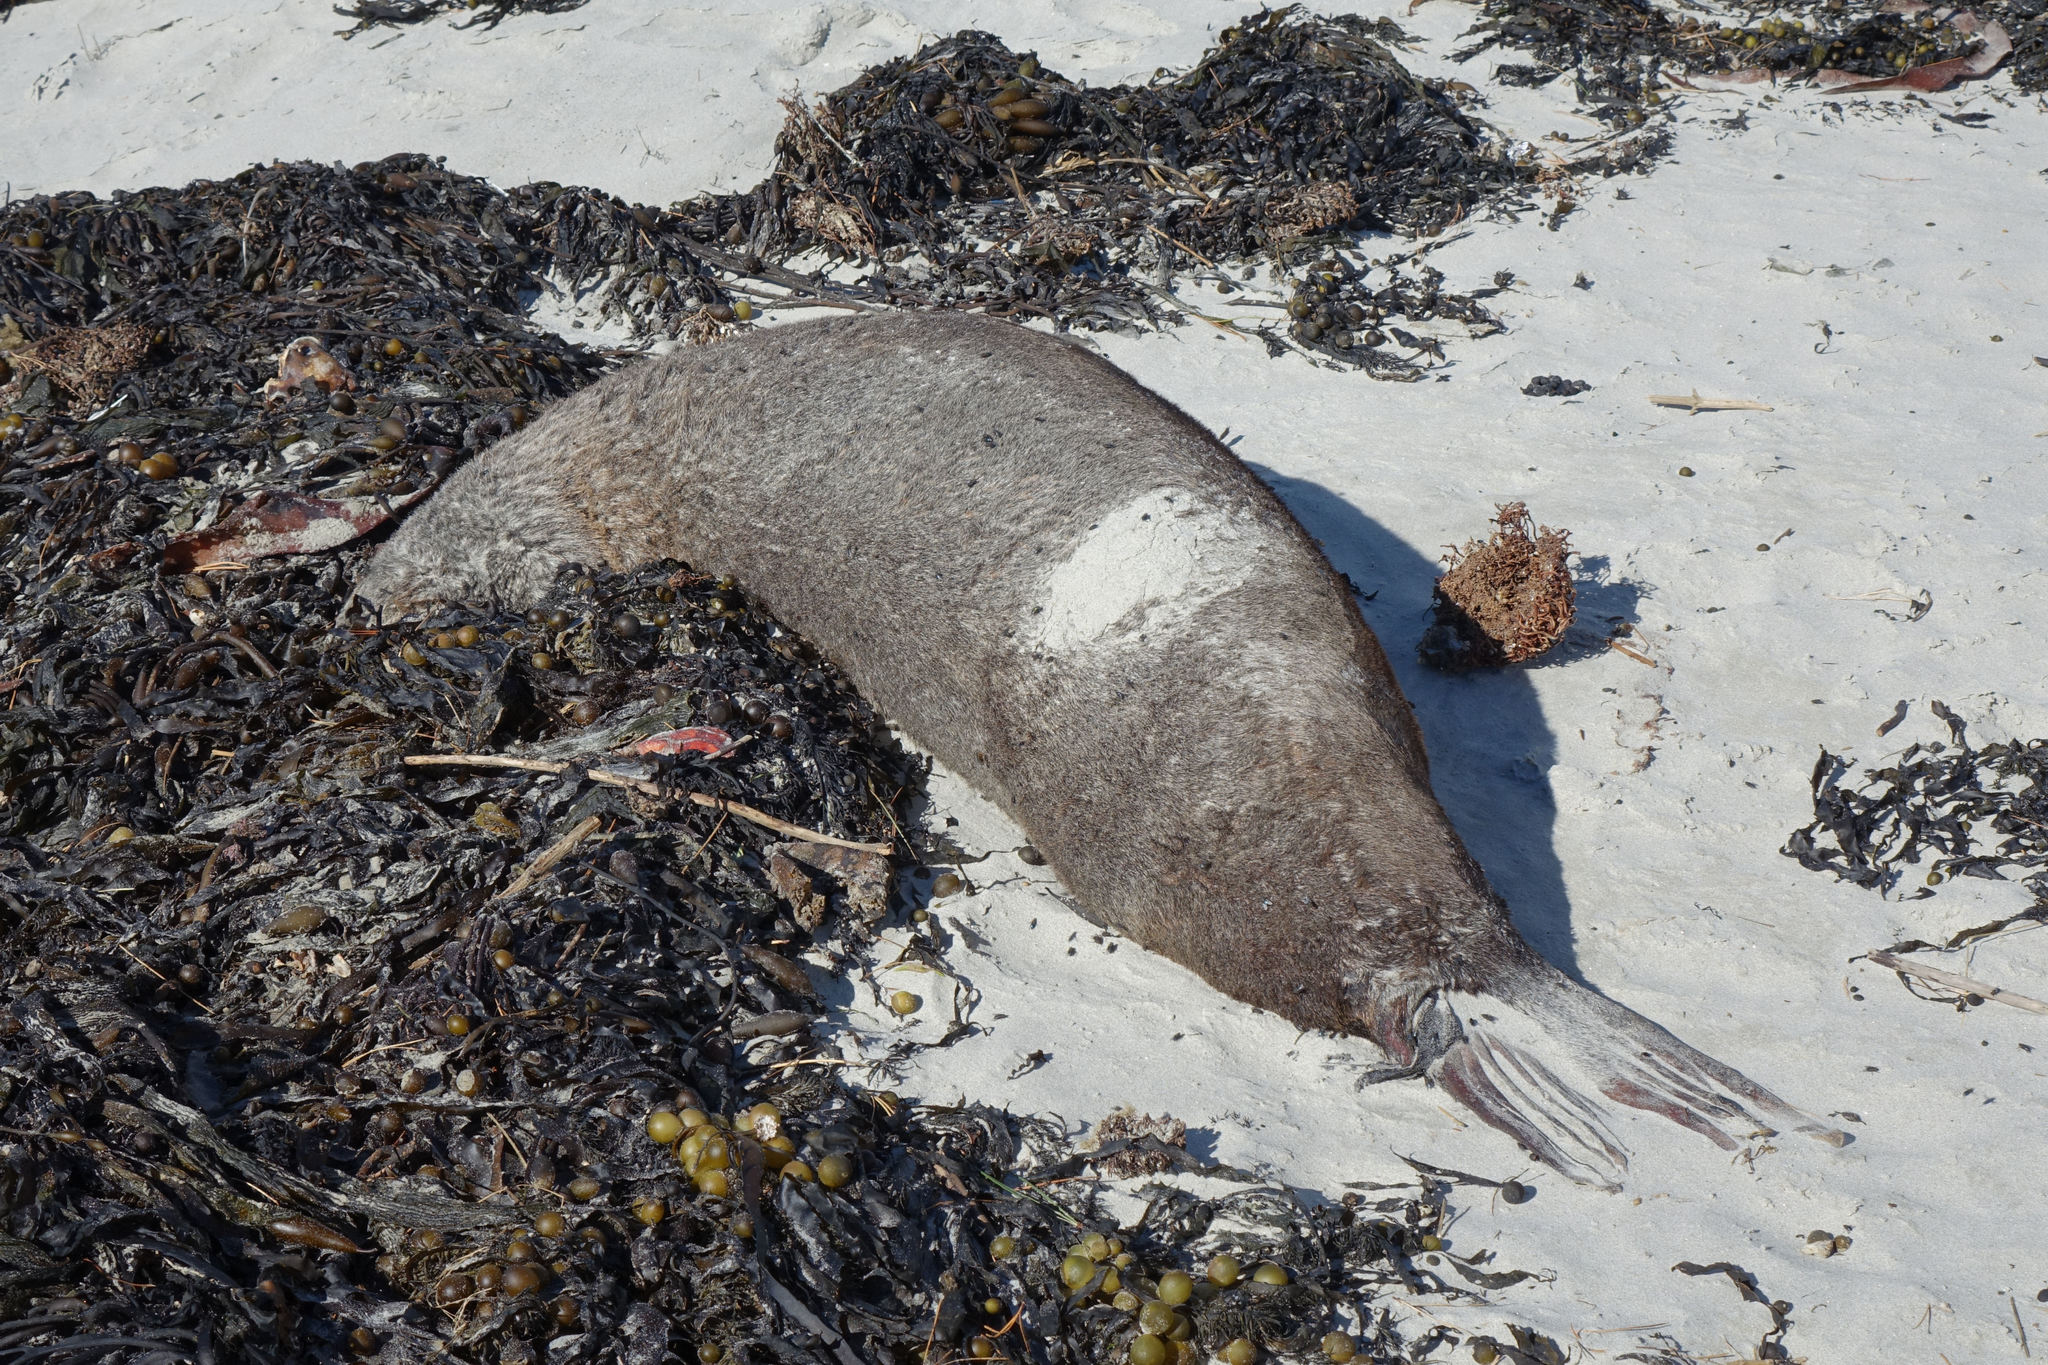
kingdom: Animalia
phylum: Chordata
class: Mammalia
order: Carnivora
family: Otariidae
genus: Arctocephalus
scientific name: Arctocephalus forsteri
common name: New zealand fur seal
